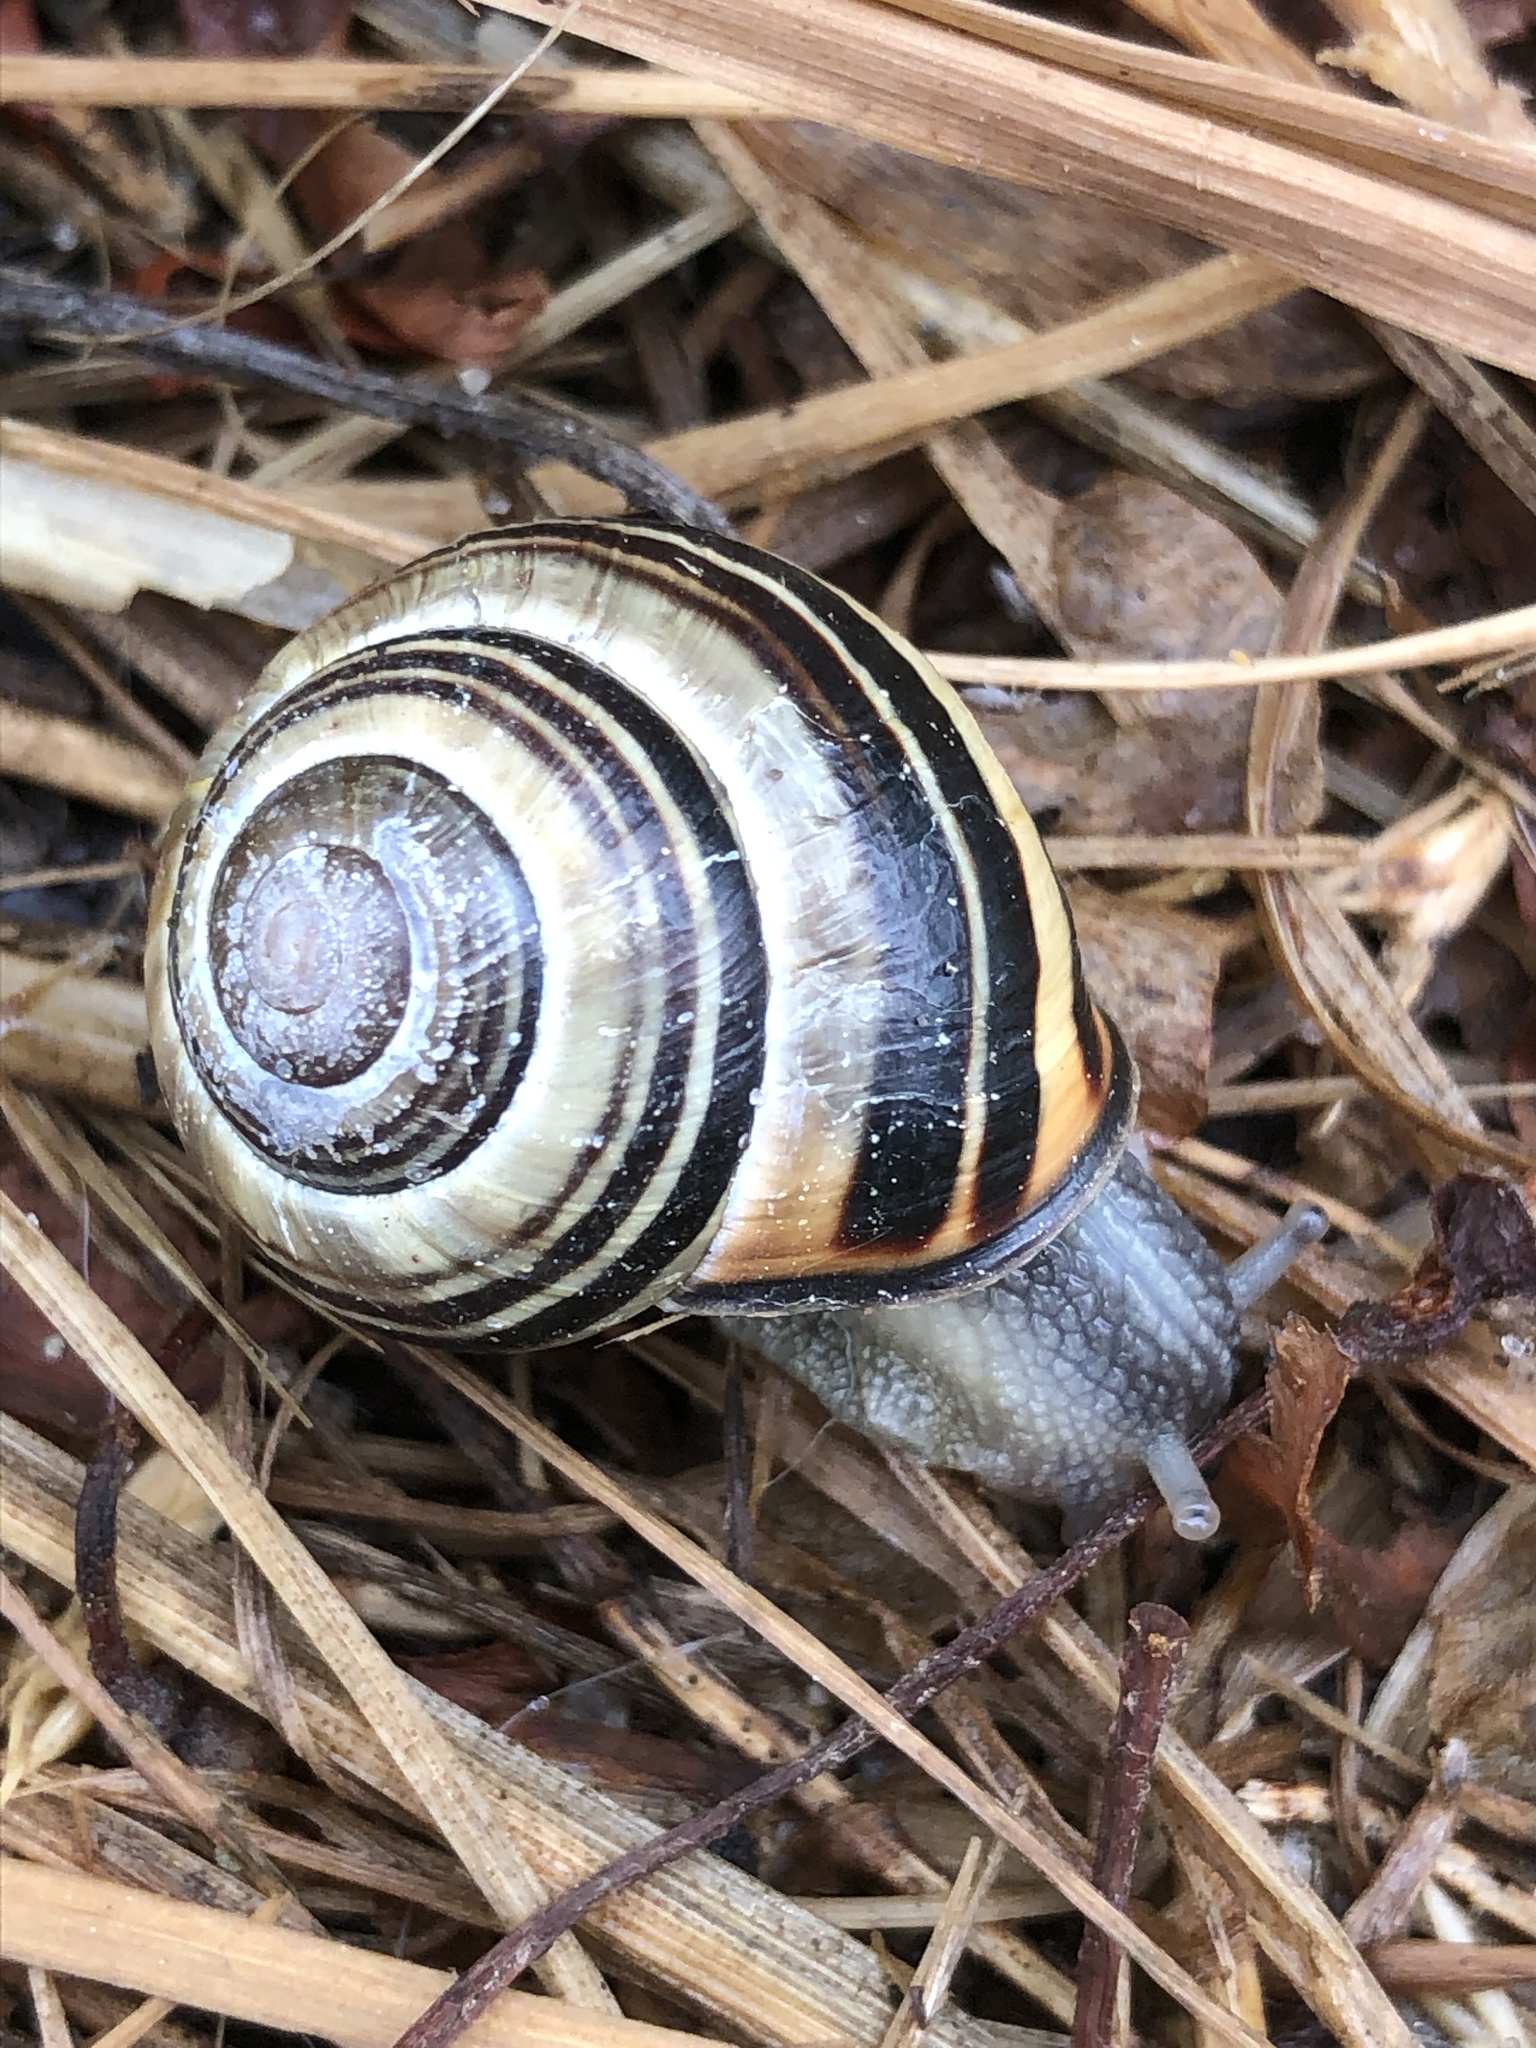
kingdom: Animalia
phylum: Mollusca
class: Gastropoda
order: Stylommatophora
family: Helicidae
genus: Cepaea
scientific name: Cepaea nemoralis
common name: Grovesnail
